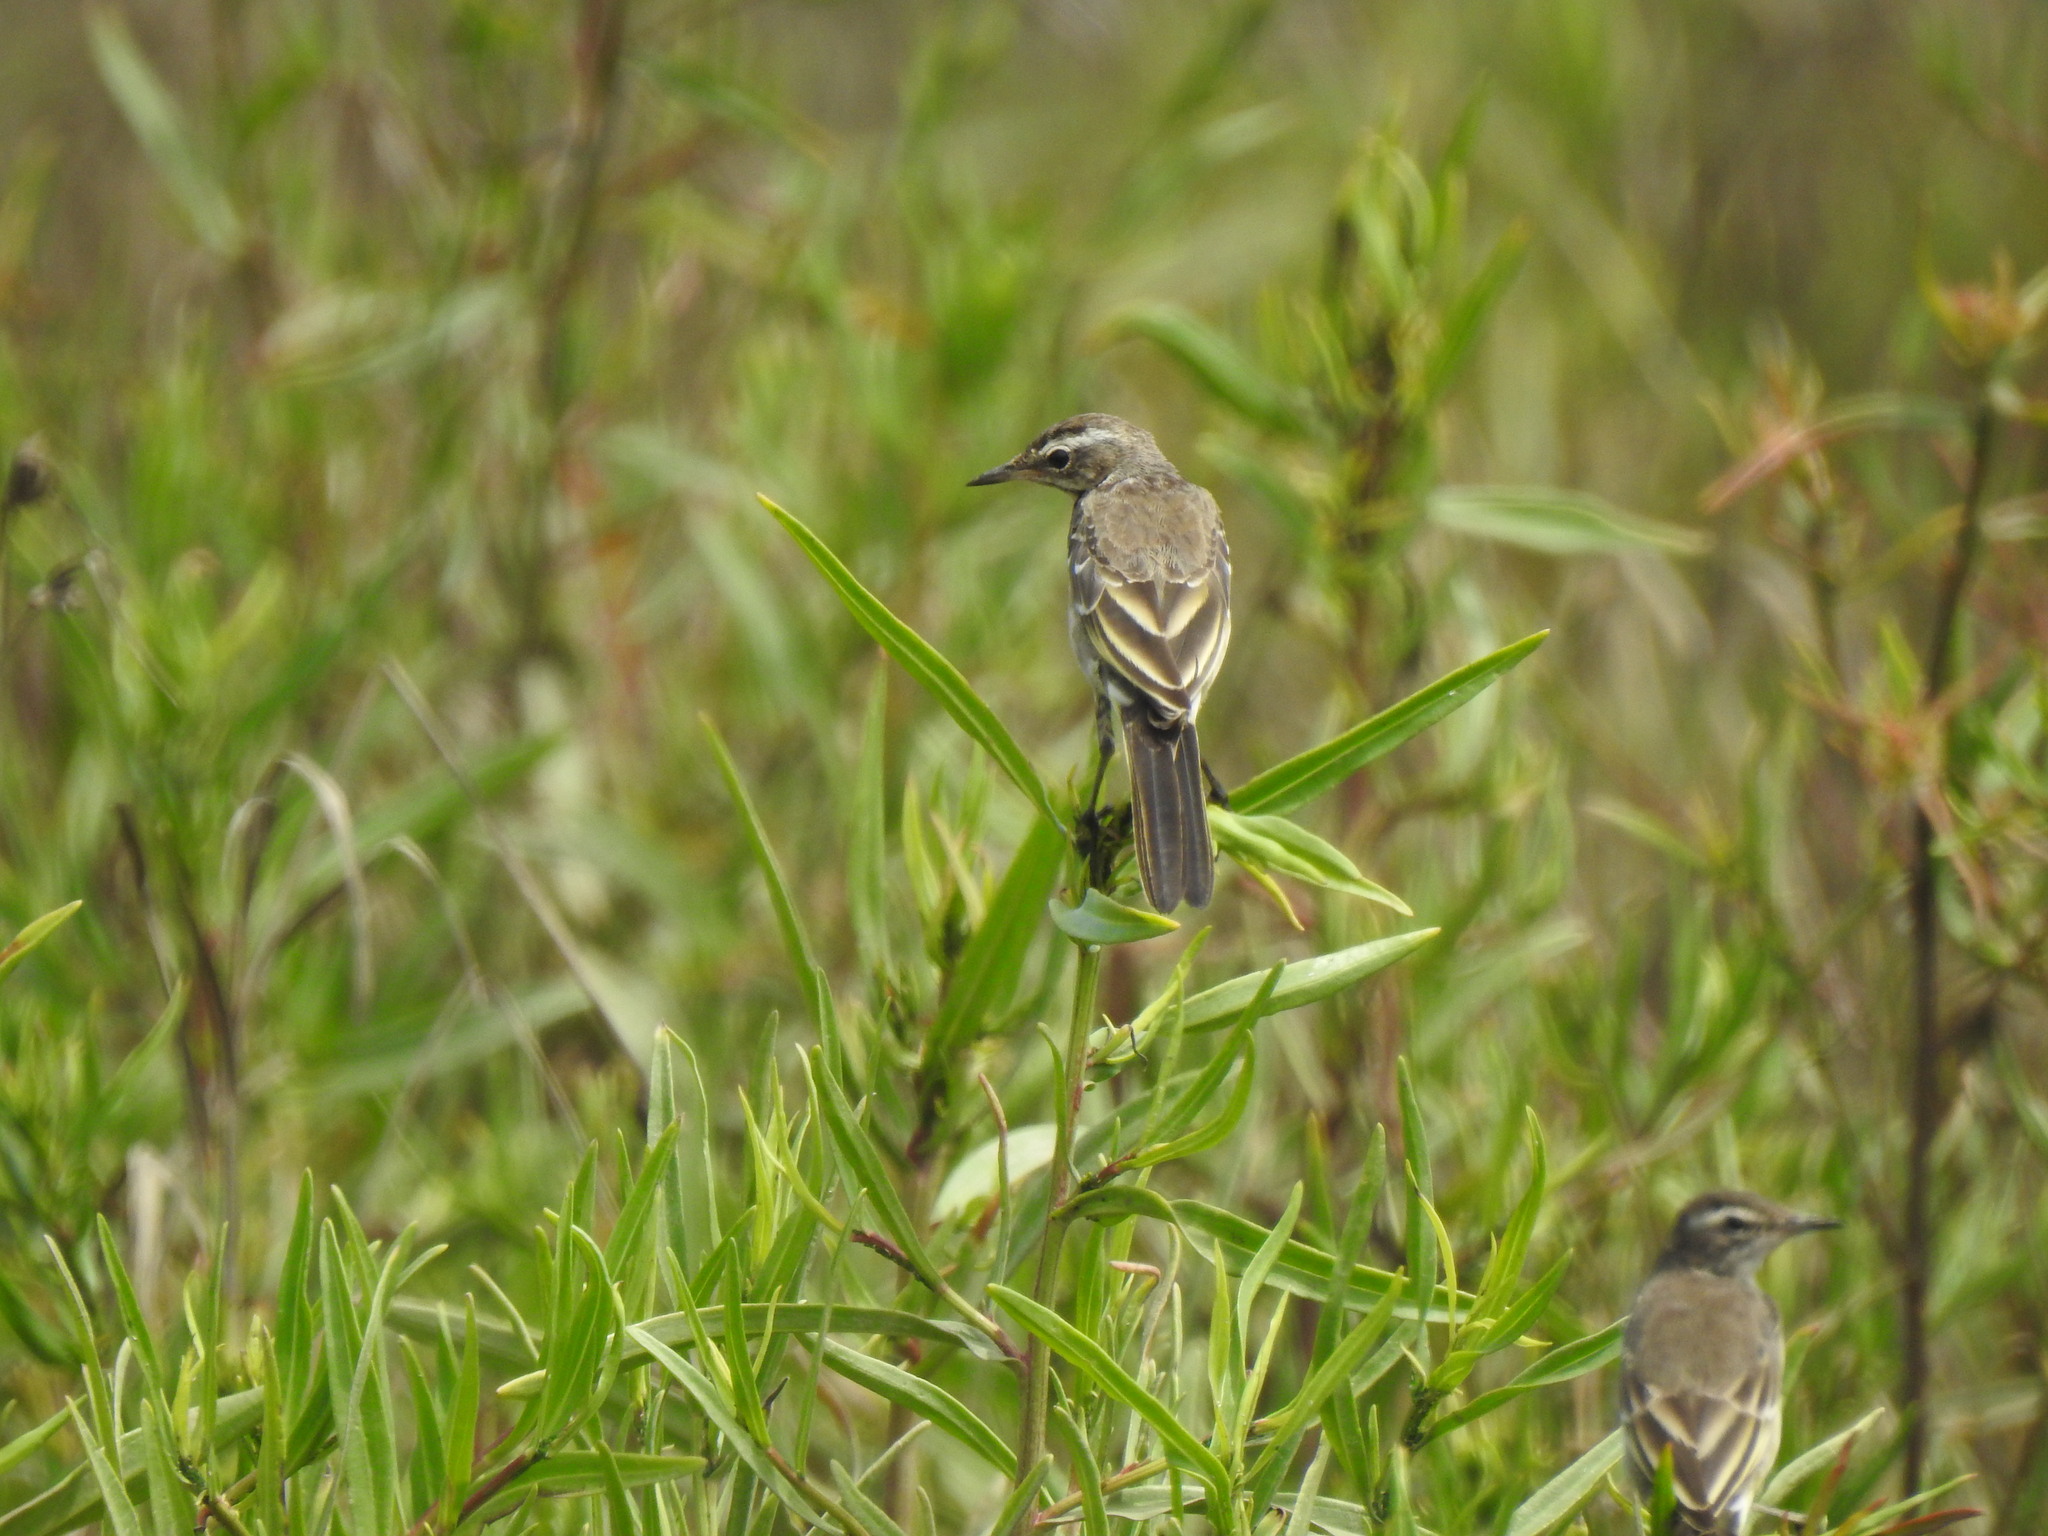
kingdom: Animalia
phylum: Chordata
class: Aves
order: Passeriformes
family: Motacillidae
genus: Motacilla
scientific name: Motacilla flava
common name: Western yellow wagtail
